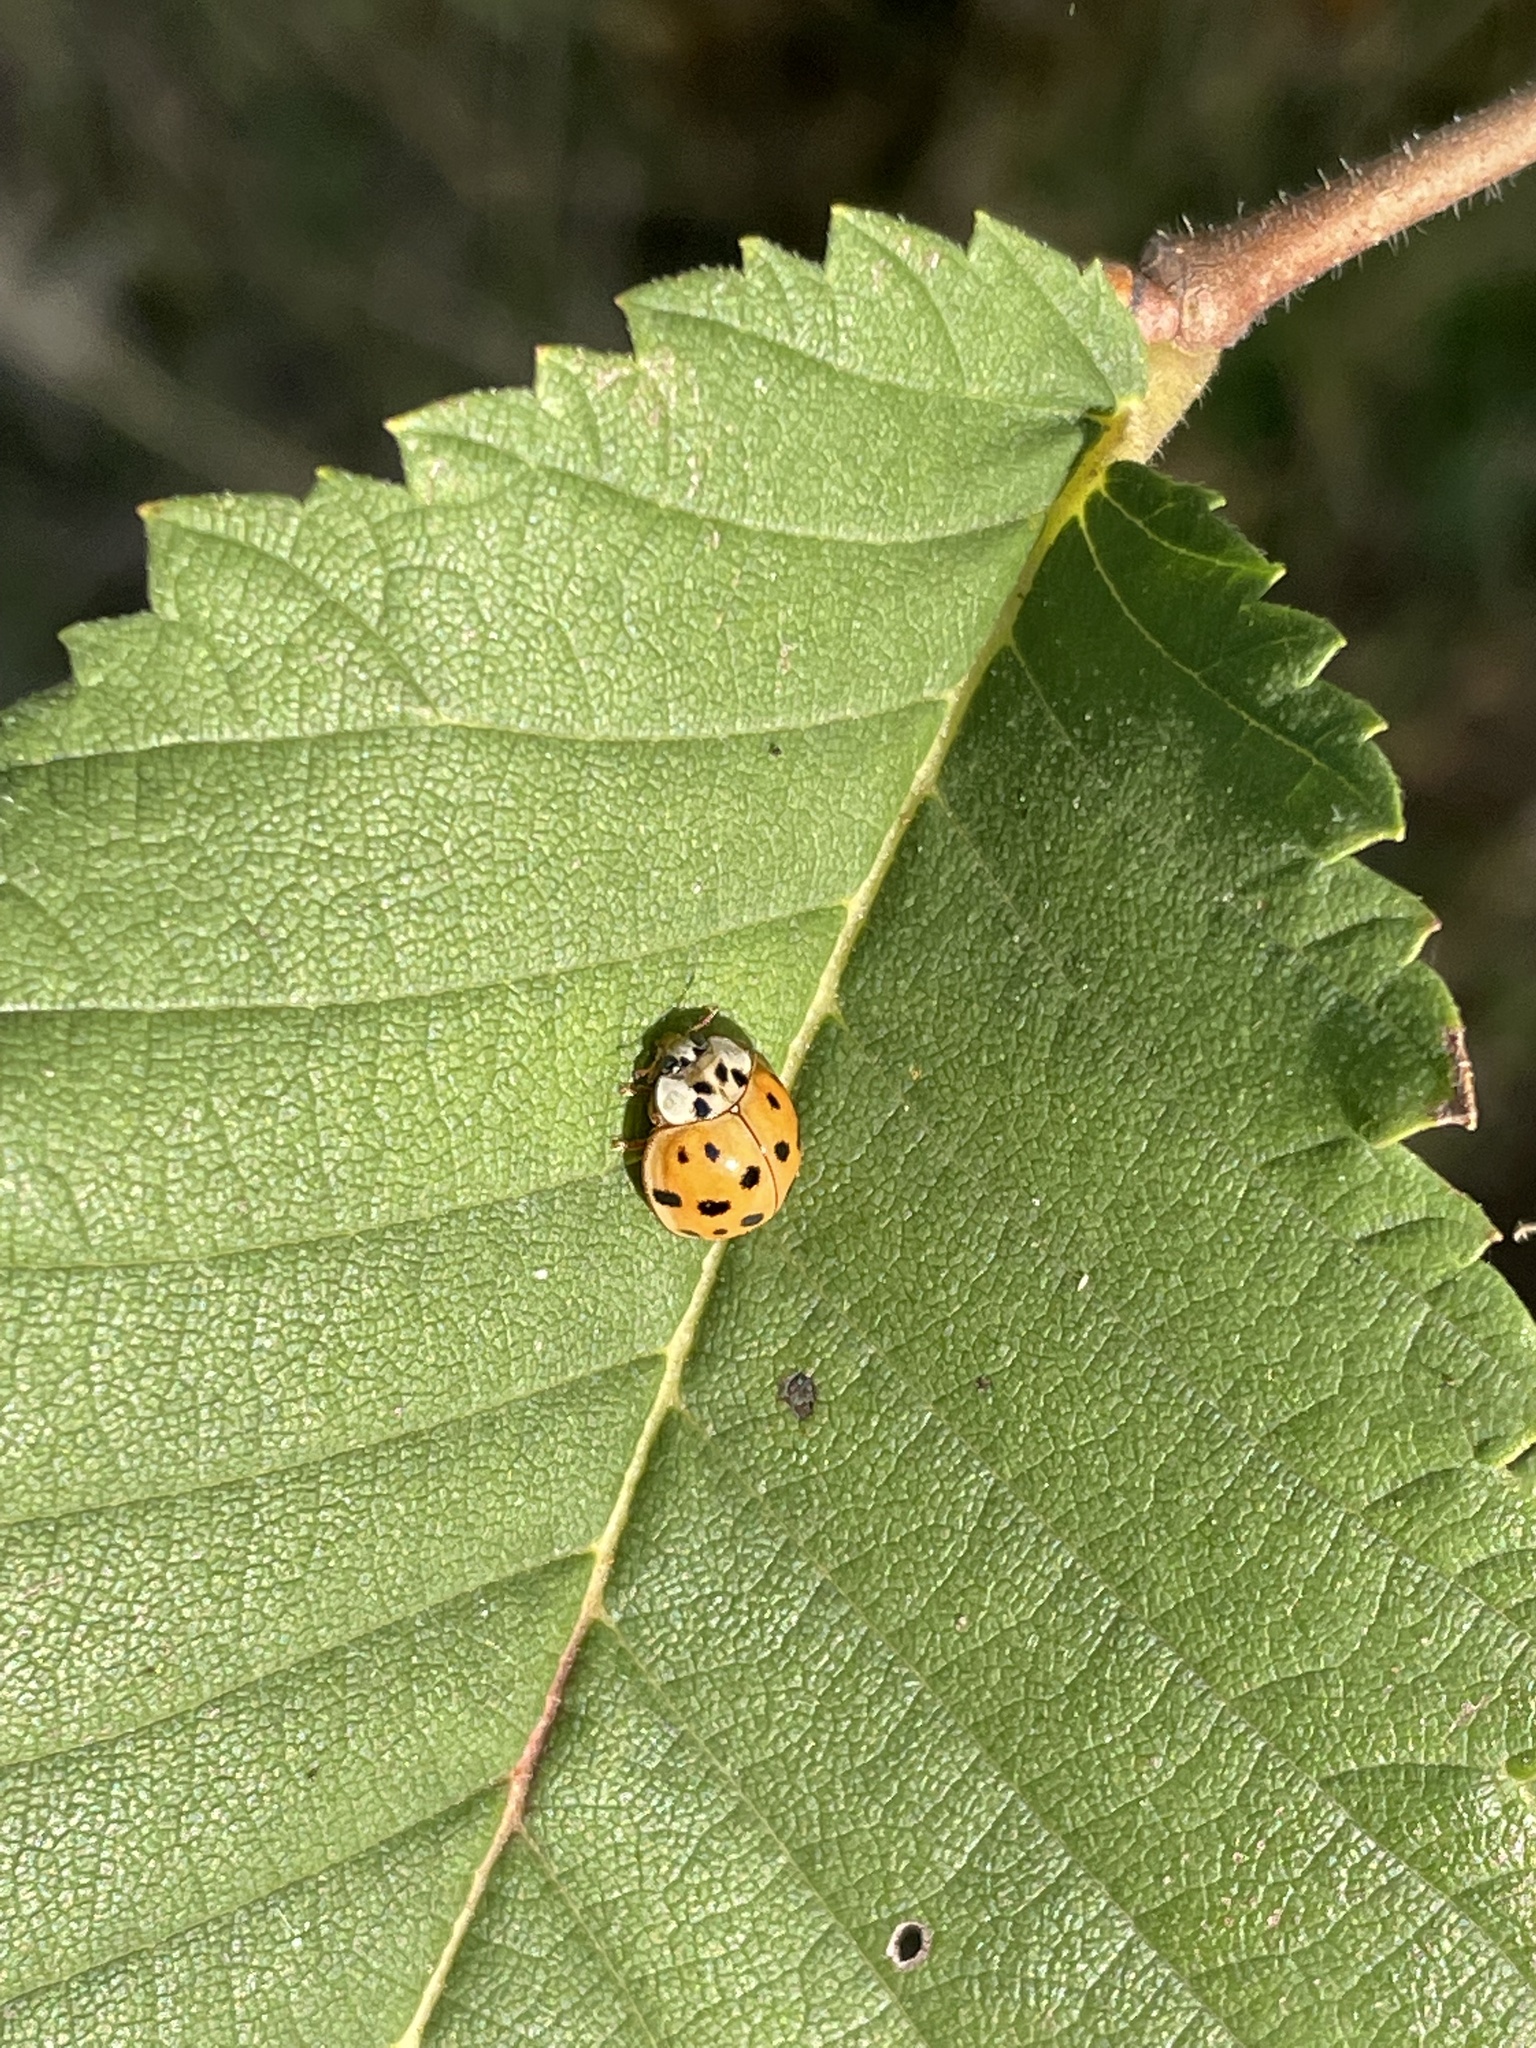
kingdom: Animalia
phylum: Arthropoda
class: Insecta
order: Coleoptera
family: Coccinellidae
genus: Harmonia
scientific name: Harmonia axyridis
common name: Harlequin ladybird
